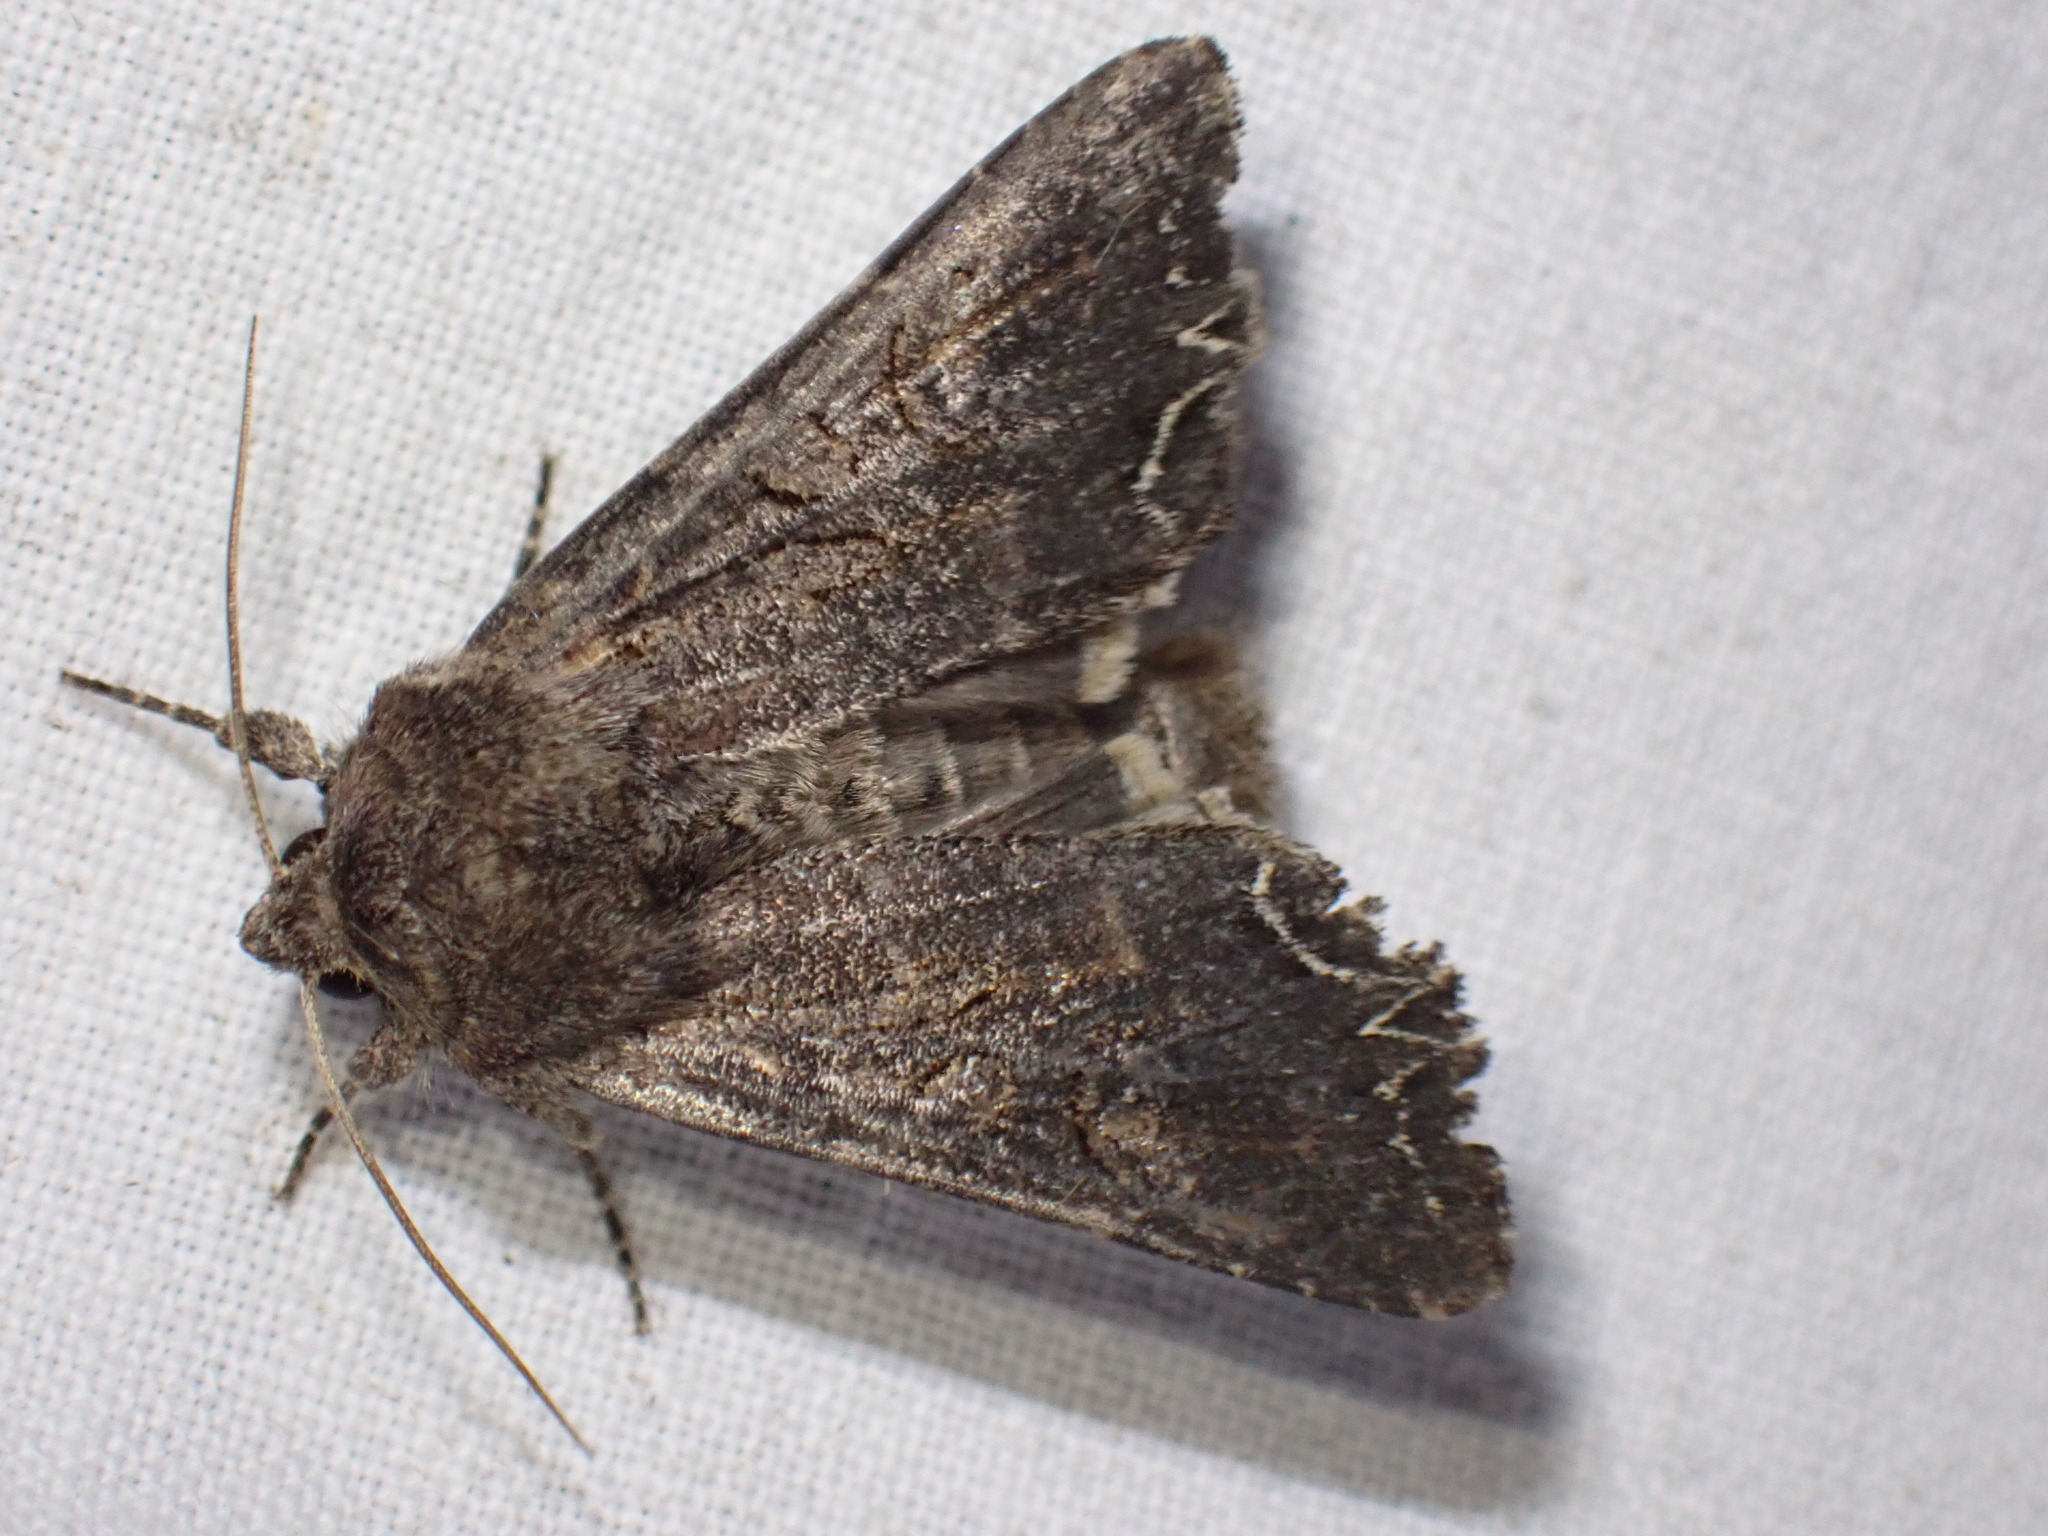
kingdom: Animalia
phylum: Arthropoda
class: Insecta
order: Lepidoptera
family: Noctuidae
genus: Lacanobia
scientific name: Lacanobia suasa
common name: Dog's tooth
